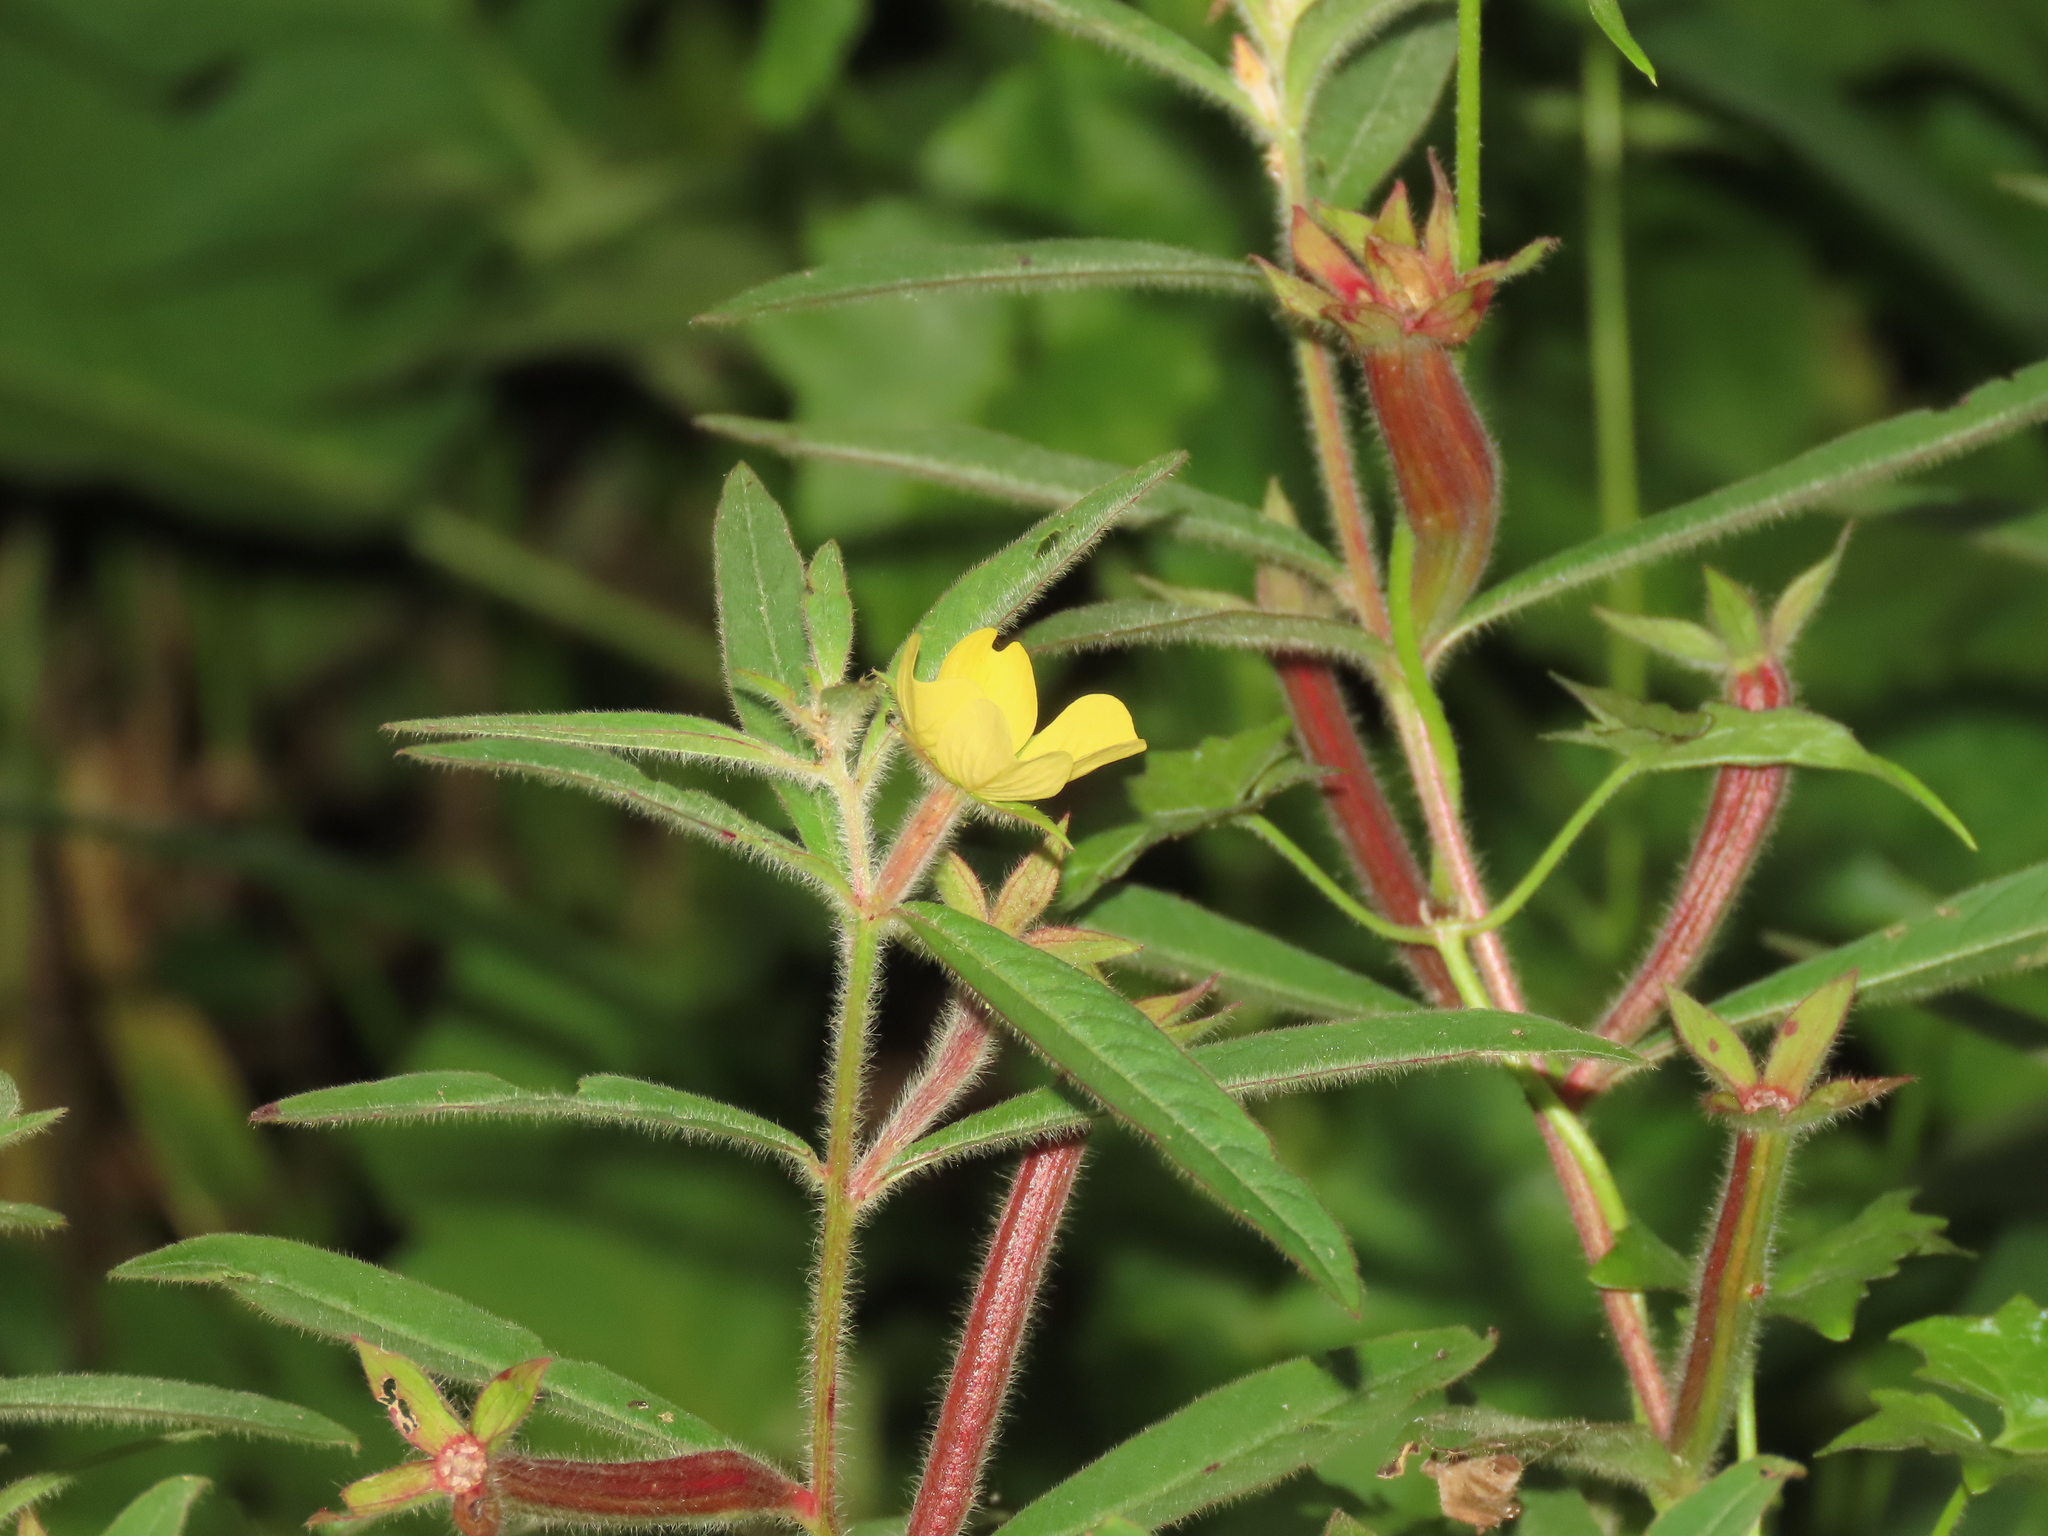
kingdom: Plantae
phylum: Tracheophyta
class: Magnoliopsida
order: Myrtales
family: Onagraceae
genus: Ludwigia
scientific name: Ludwigia octovalvis
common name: Water-primrose
